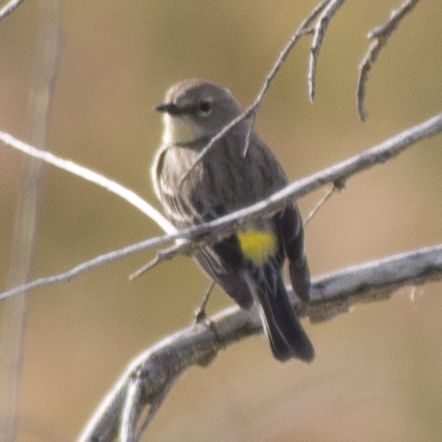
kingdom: Animalia
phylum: Chordata
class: Aves
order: Passeriformes
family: Parulidae
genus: Setophaga
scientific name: Setophaga coronata
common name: Myrtle warbler
